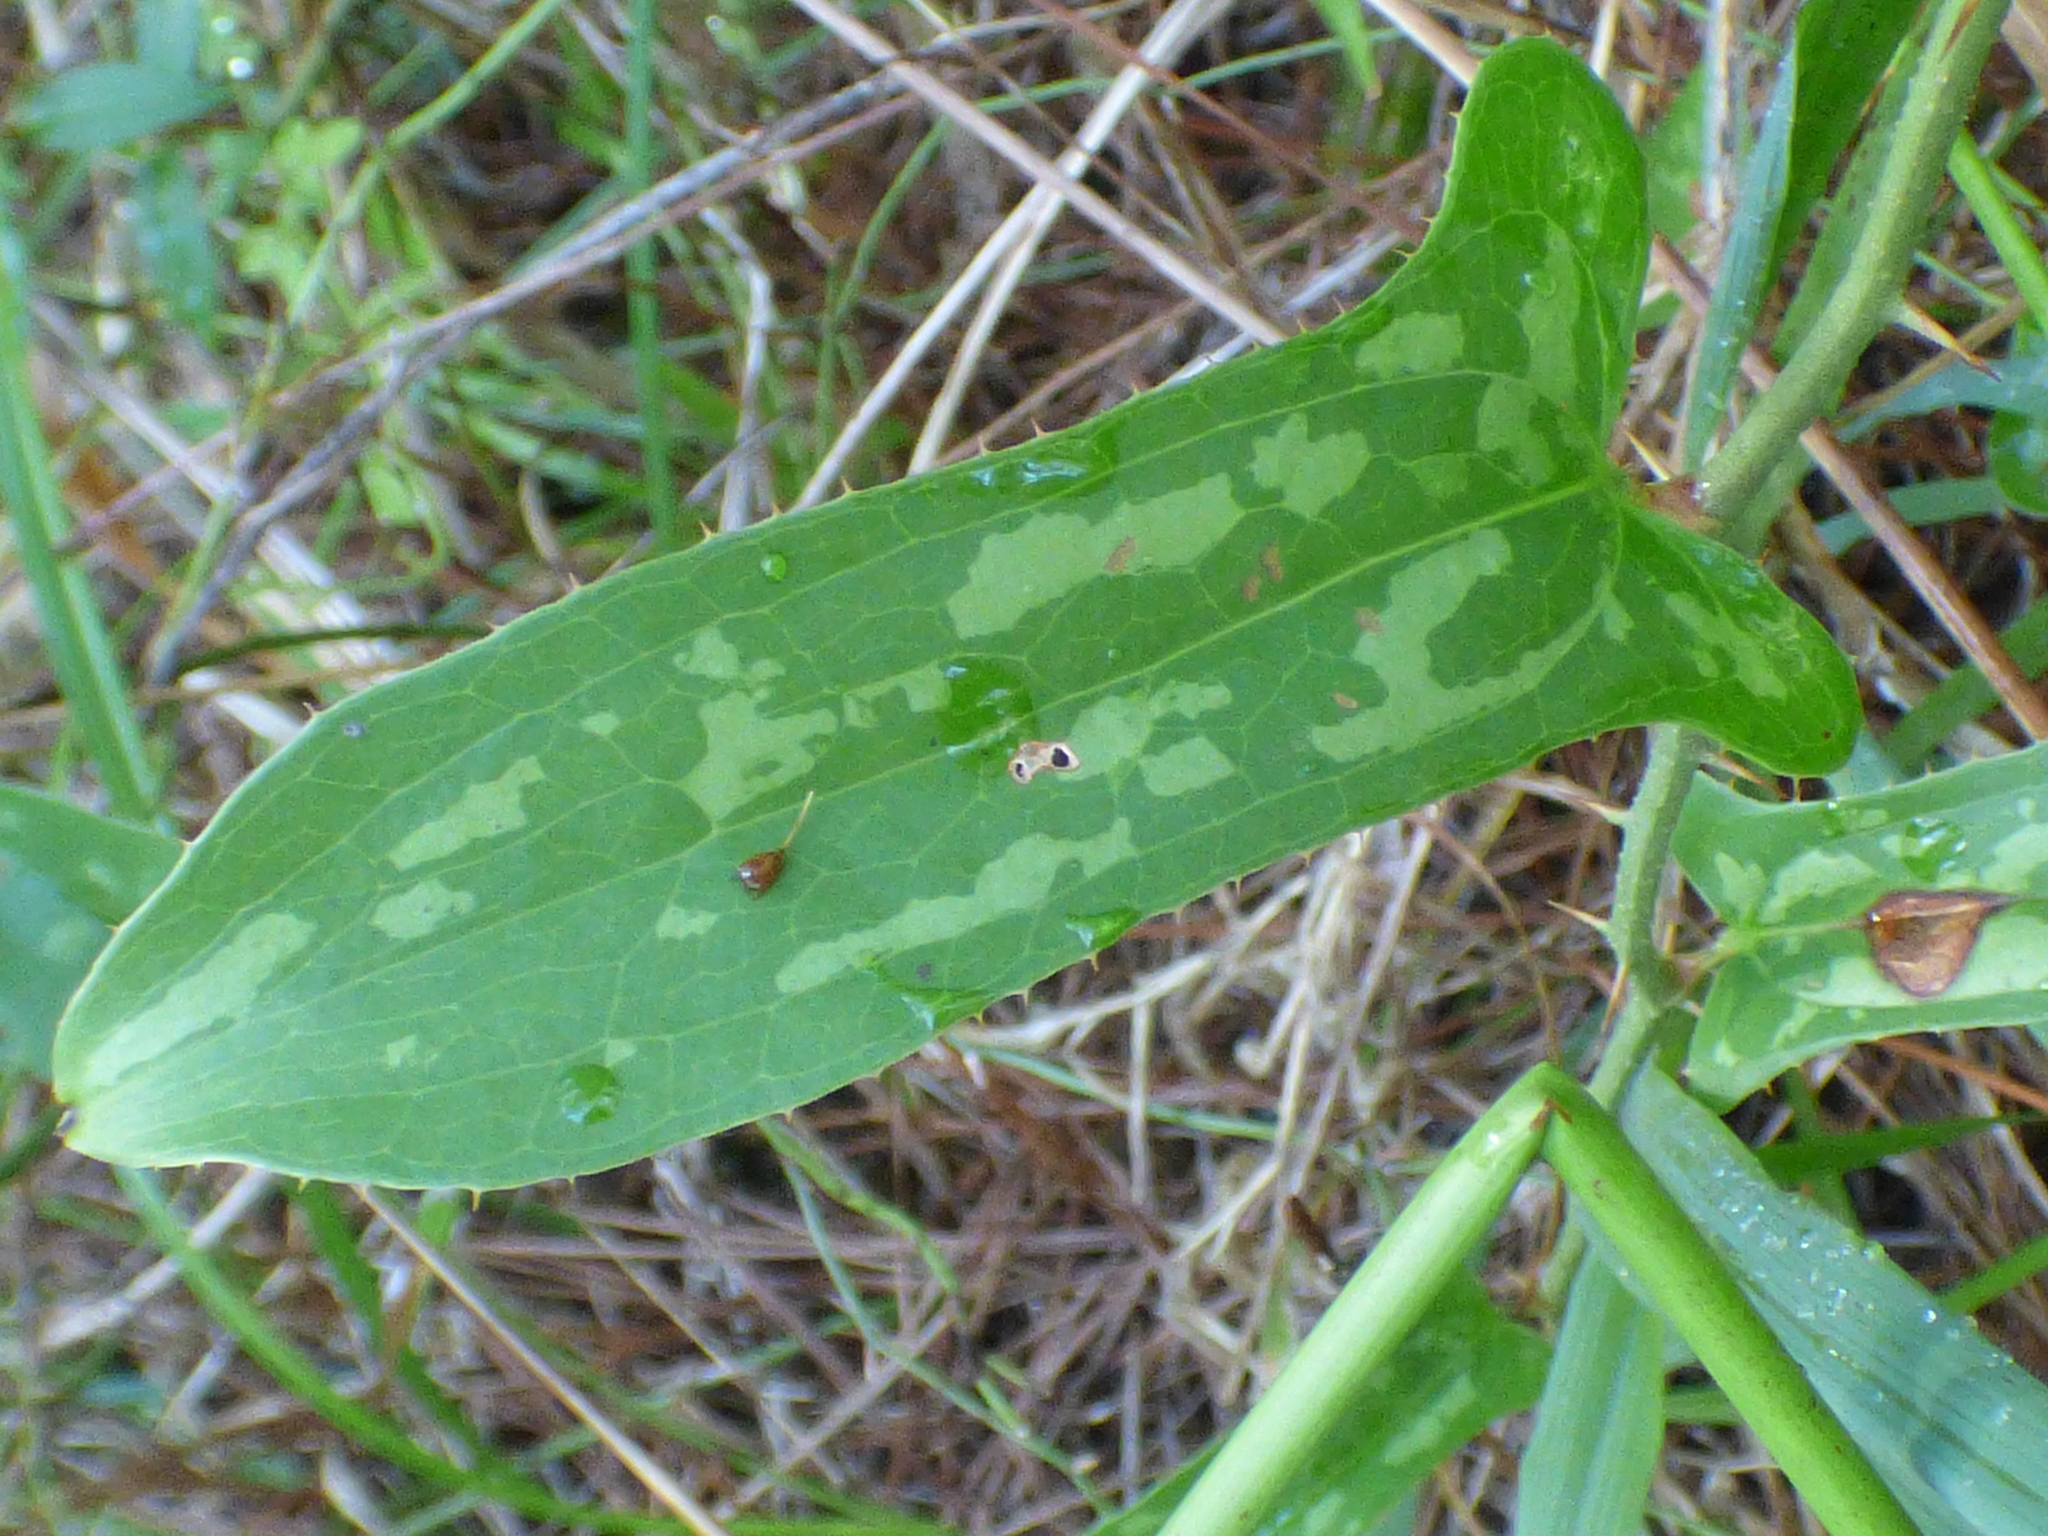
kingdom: Plantae
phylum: Tracheophyta
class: Liliopsida
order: Liliales
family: Smilacaceae
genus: Smilax
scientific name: Smilax bona-nox
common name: Catbrier
